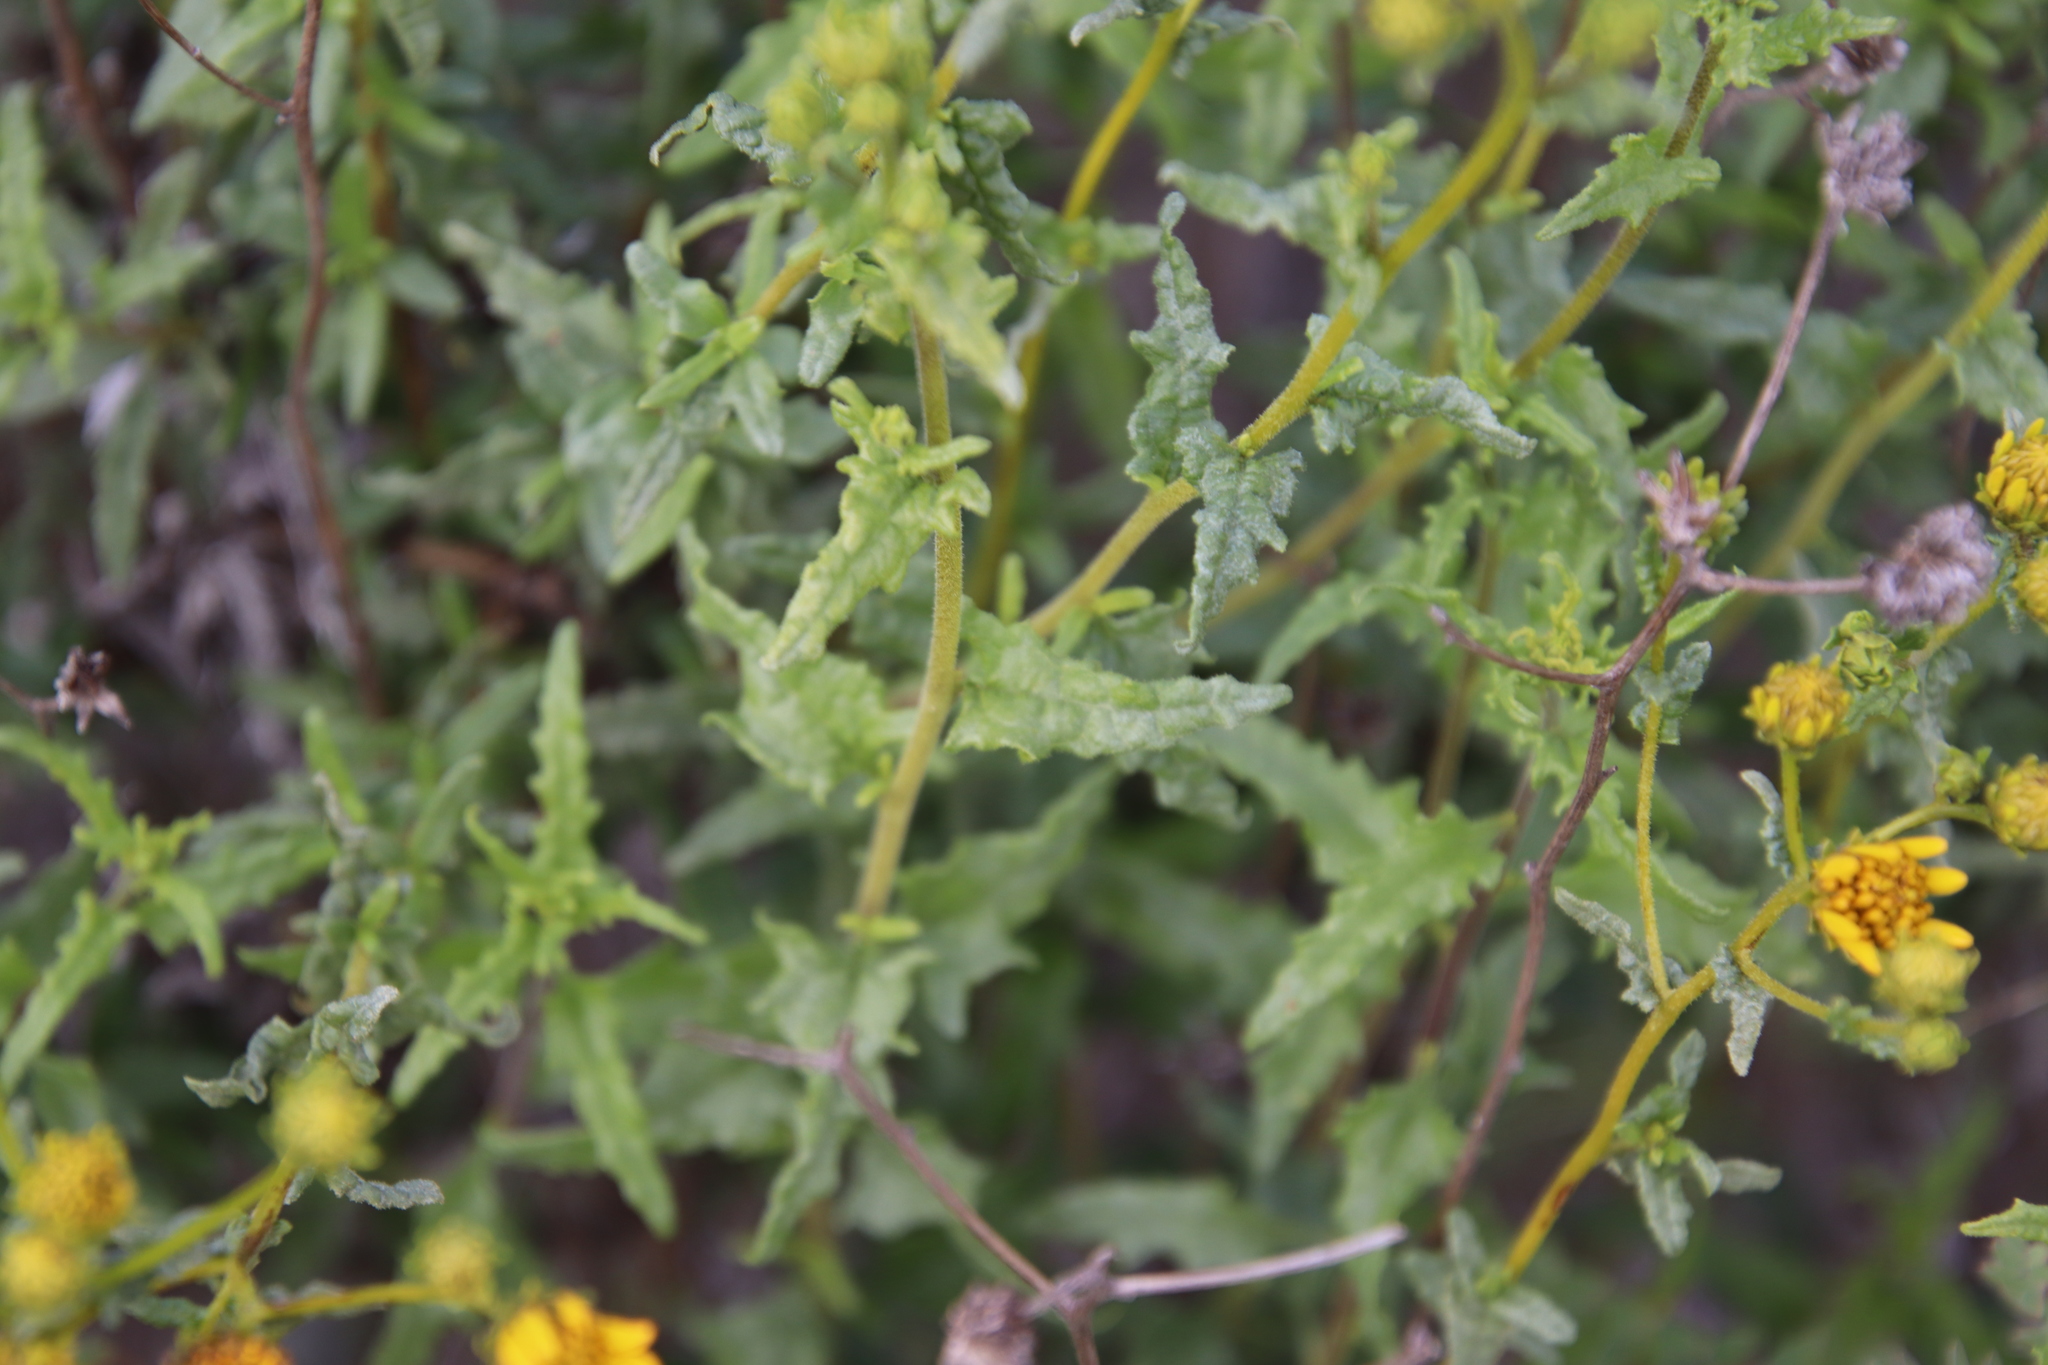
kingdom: Plantae
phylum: Tracheophyta
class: Magnoliopsida
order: Asterales
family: Asteraceae
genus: Bahiopsis
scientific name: Bahiopsis laciniata
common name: San diego county viguiera
